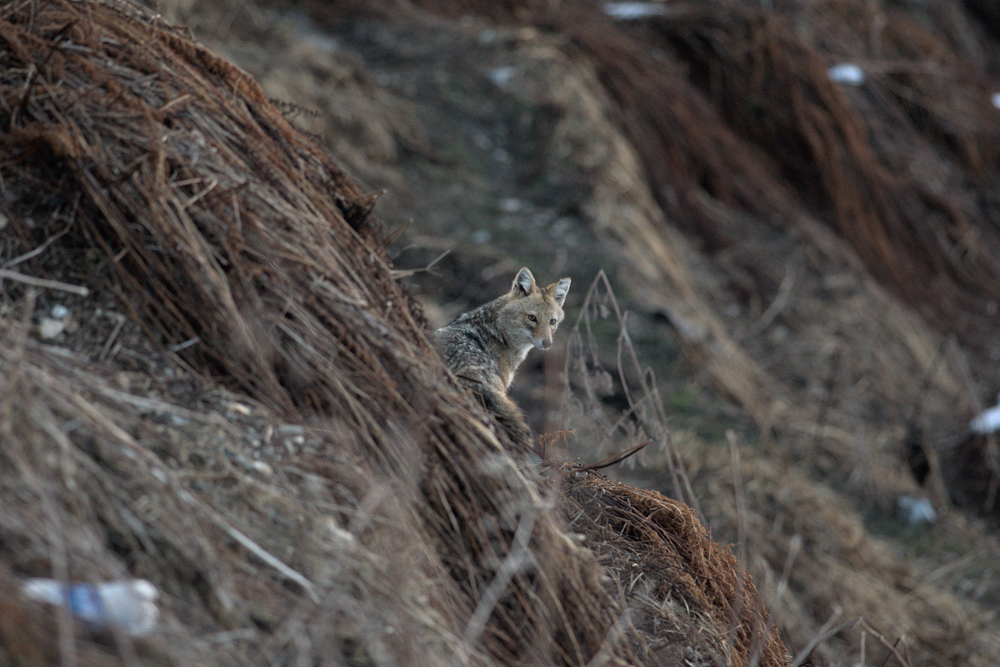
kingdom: Animalia
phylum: Chordata
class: Mammalia
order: Carnivora
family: Canidae
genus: Canis
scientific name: Canis aureus
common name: Golden jackal
